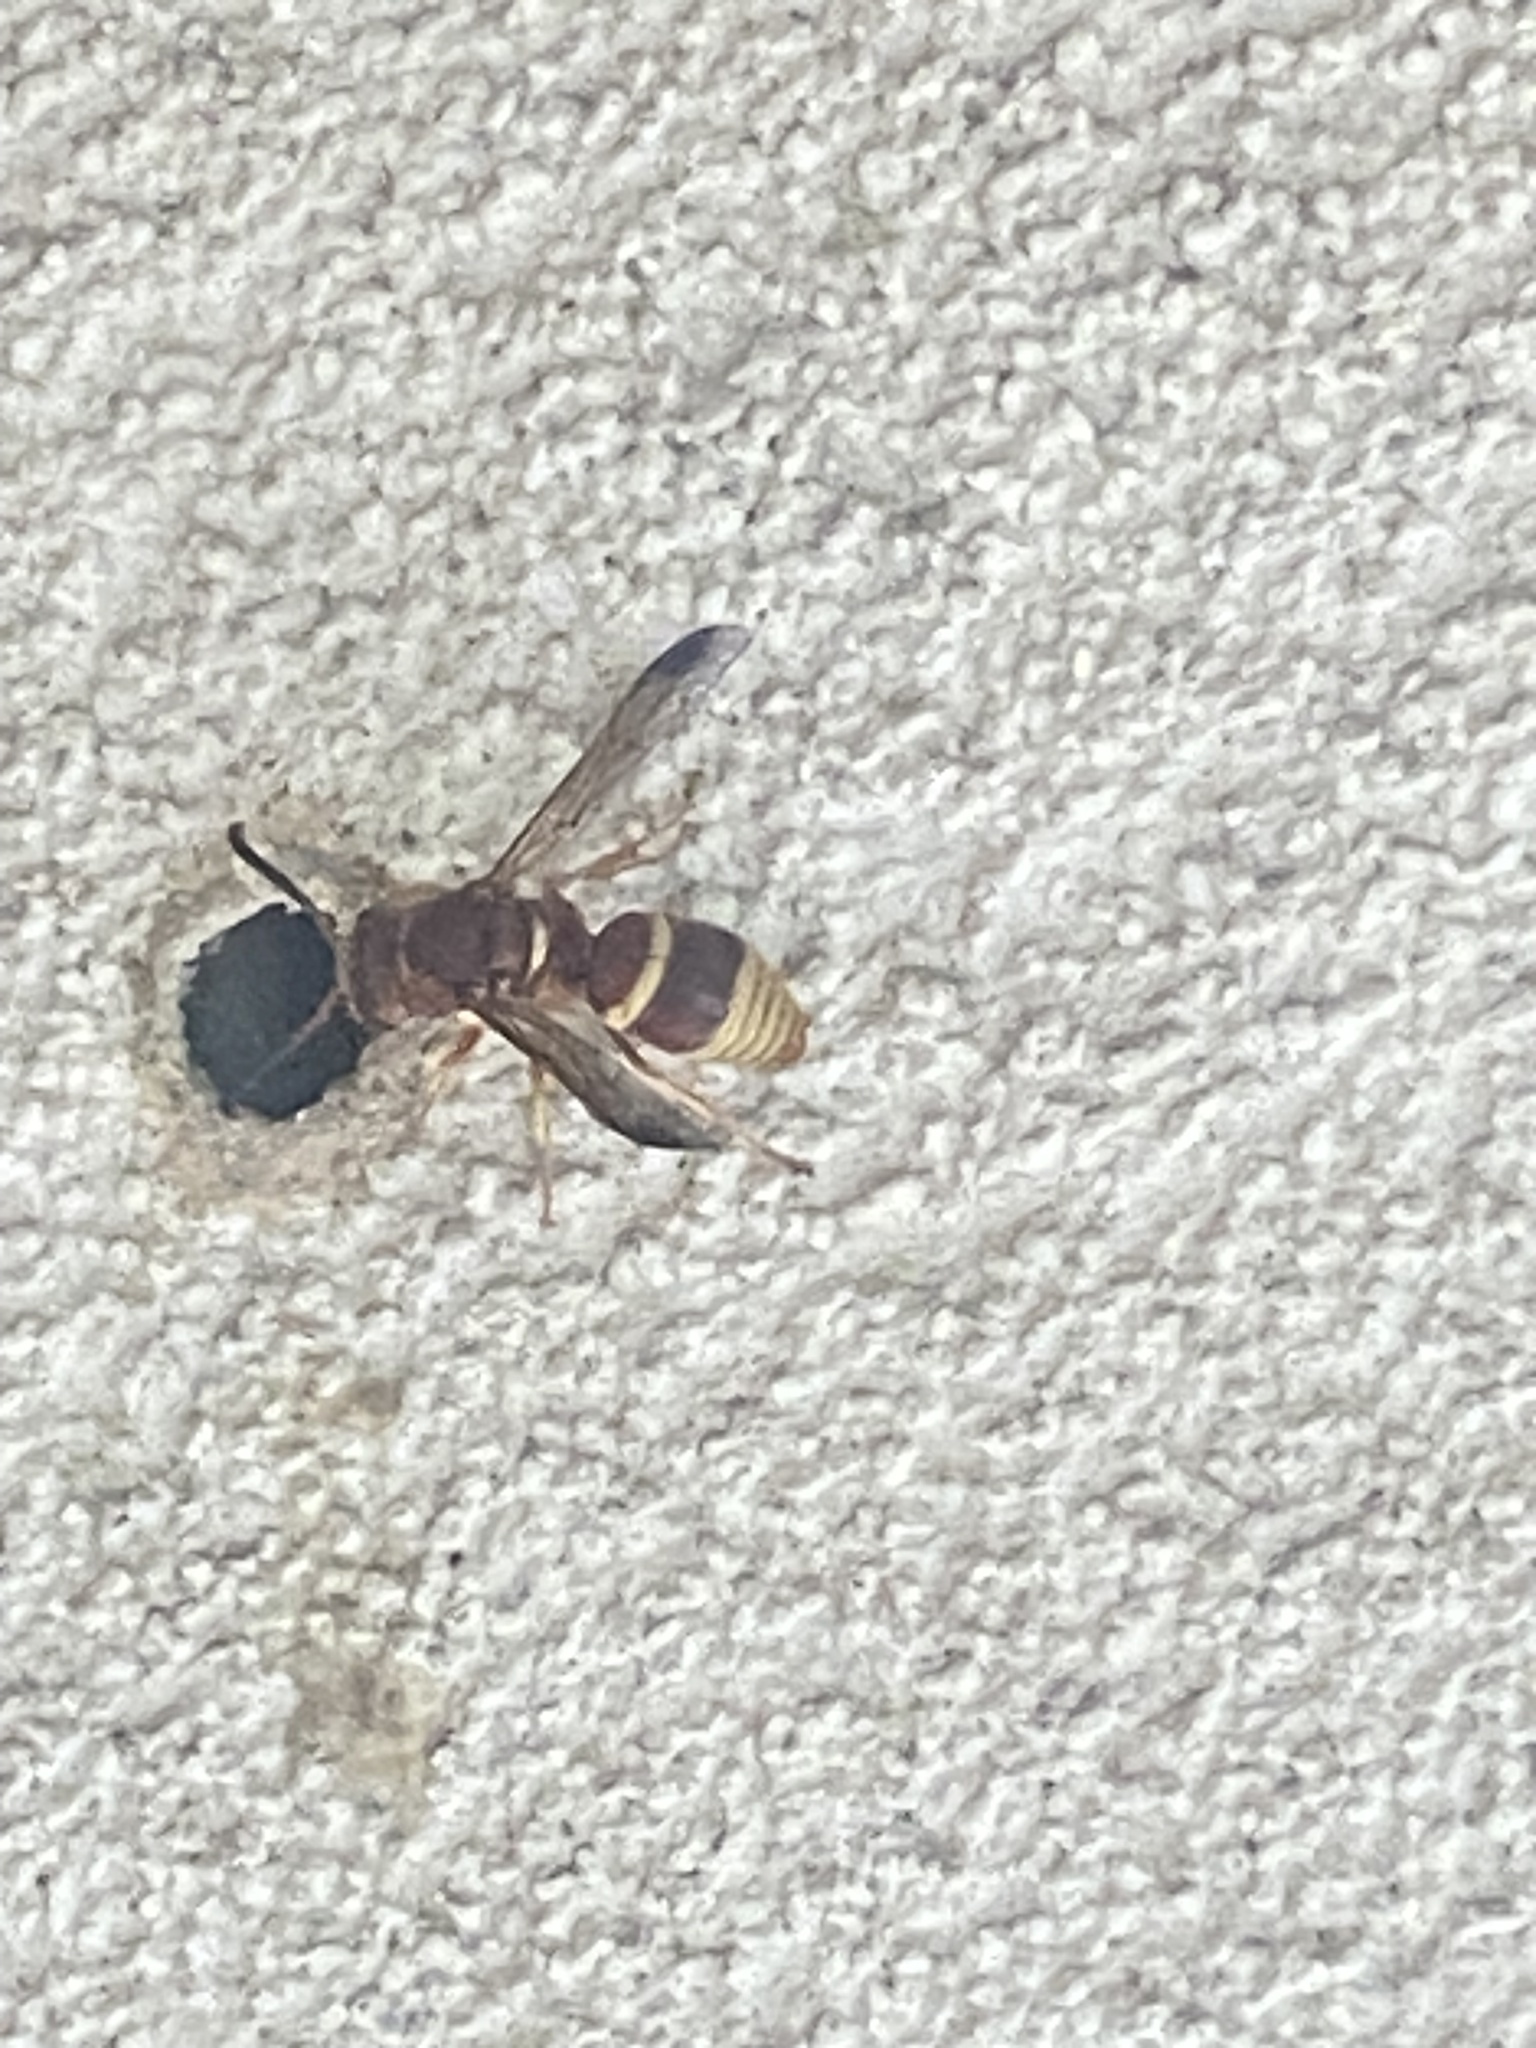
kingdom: Animalia
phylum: Arthropoda
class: Insecta
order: Hymenoptera
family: Eumenidae
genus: Euodynerus
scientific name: Euodynerus
